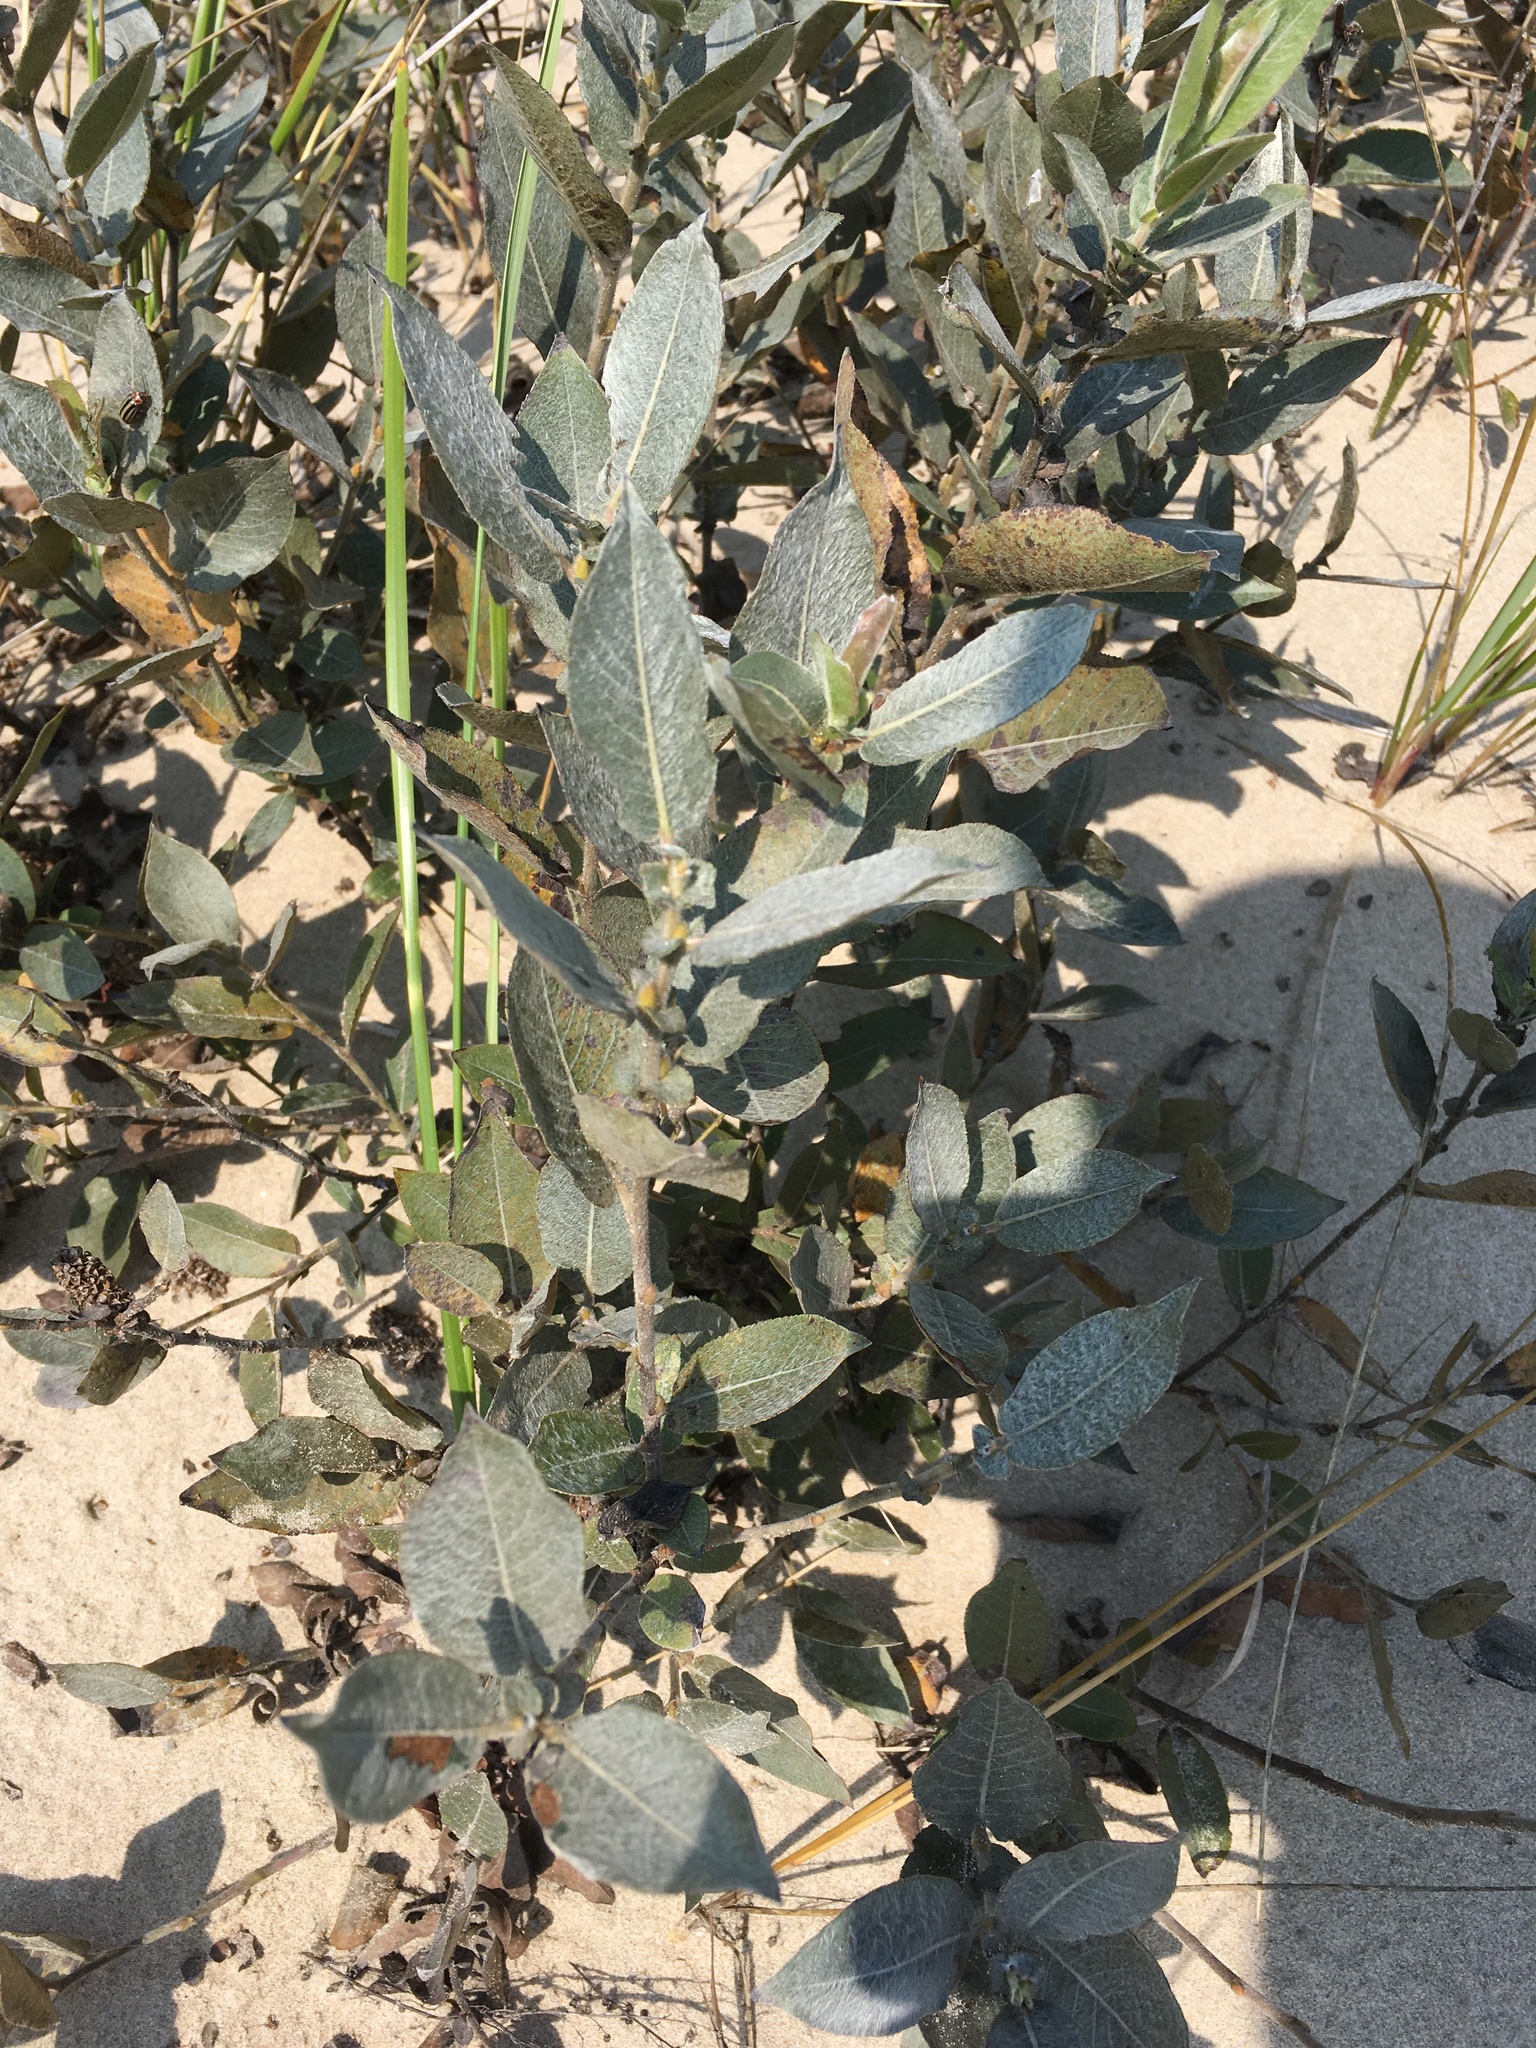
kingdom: Plantae
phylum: Tracheophyta
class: Magnoliopsida
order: Malpighiales
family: Salicaceae
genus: Salix
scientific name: Salix cordata
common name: Heart-leaf willow
